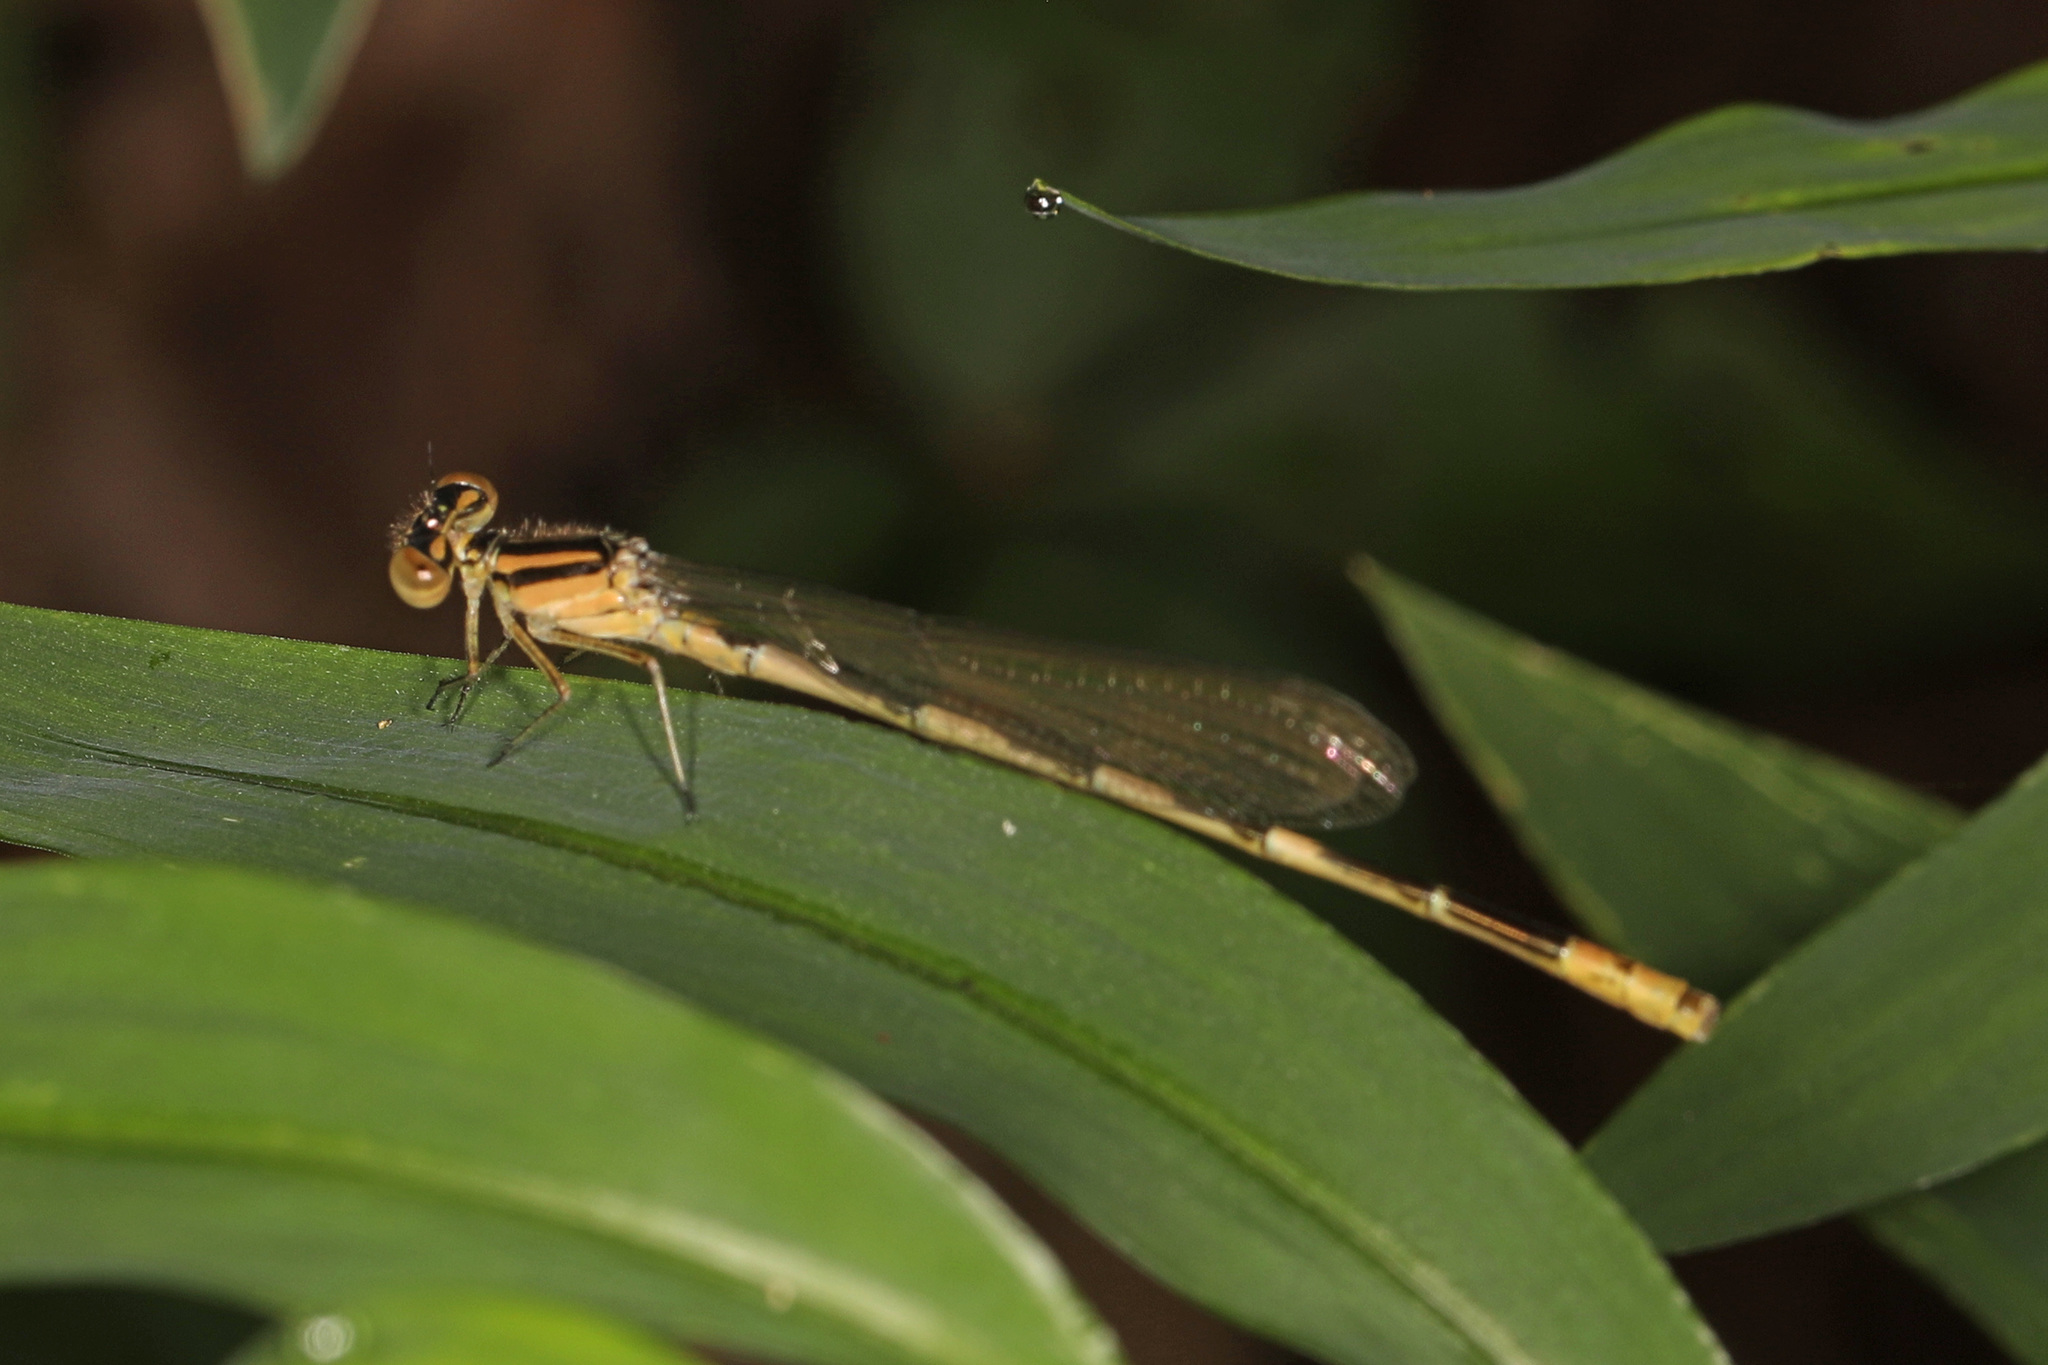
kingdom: Animalia
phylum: Arthropoda
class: Insecta
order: Odonata
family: Coenagrionidae
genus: Enallagma
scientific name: Enallagma durum
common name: Big bluet
